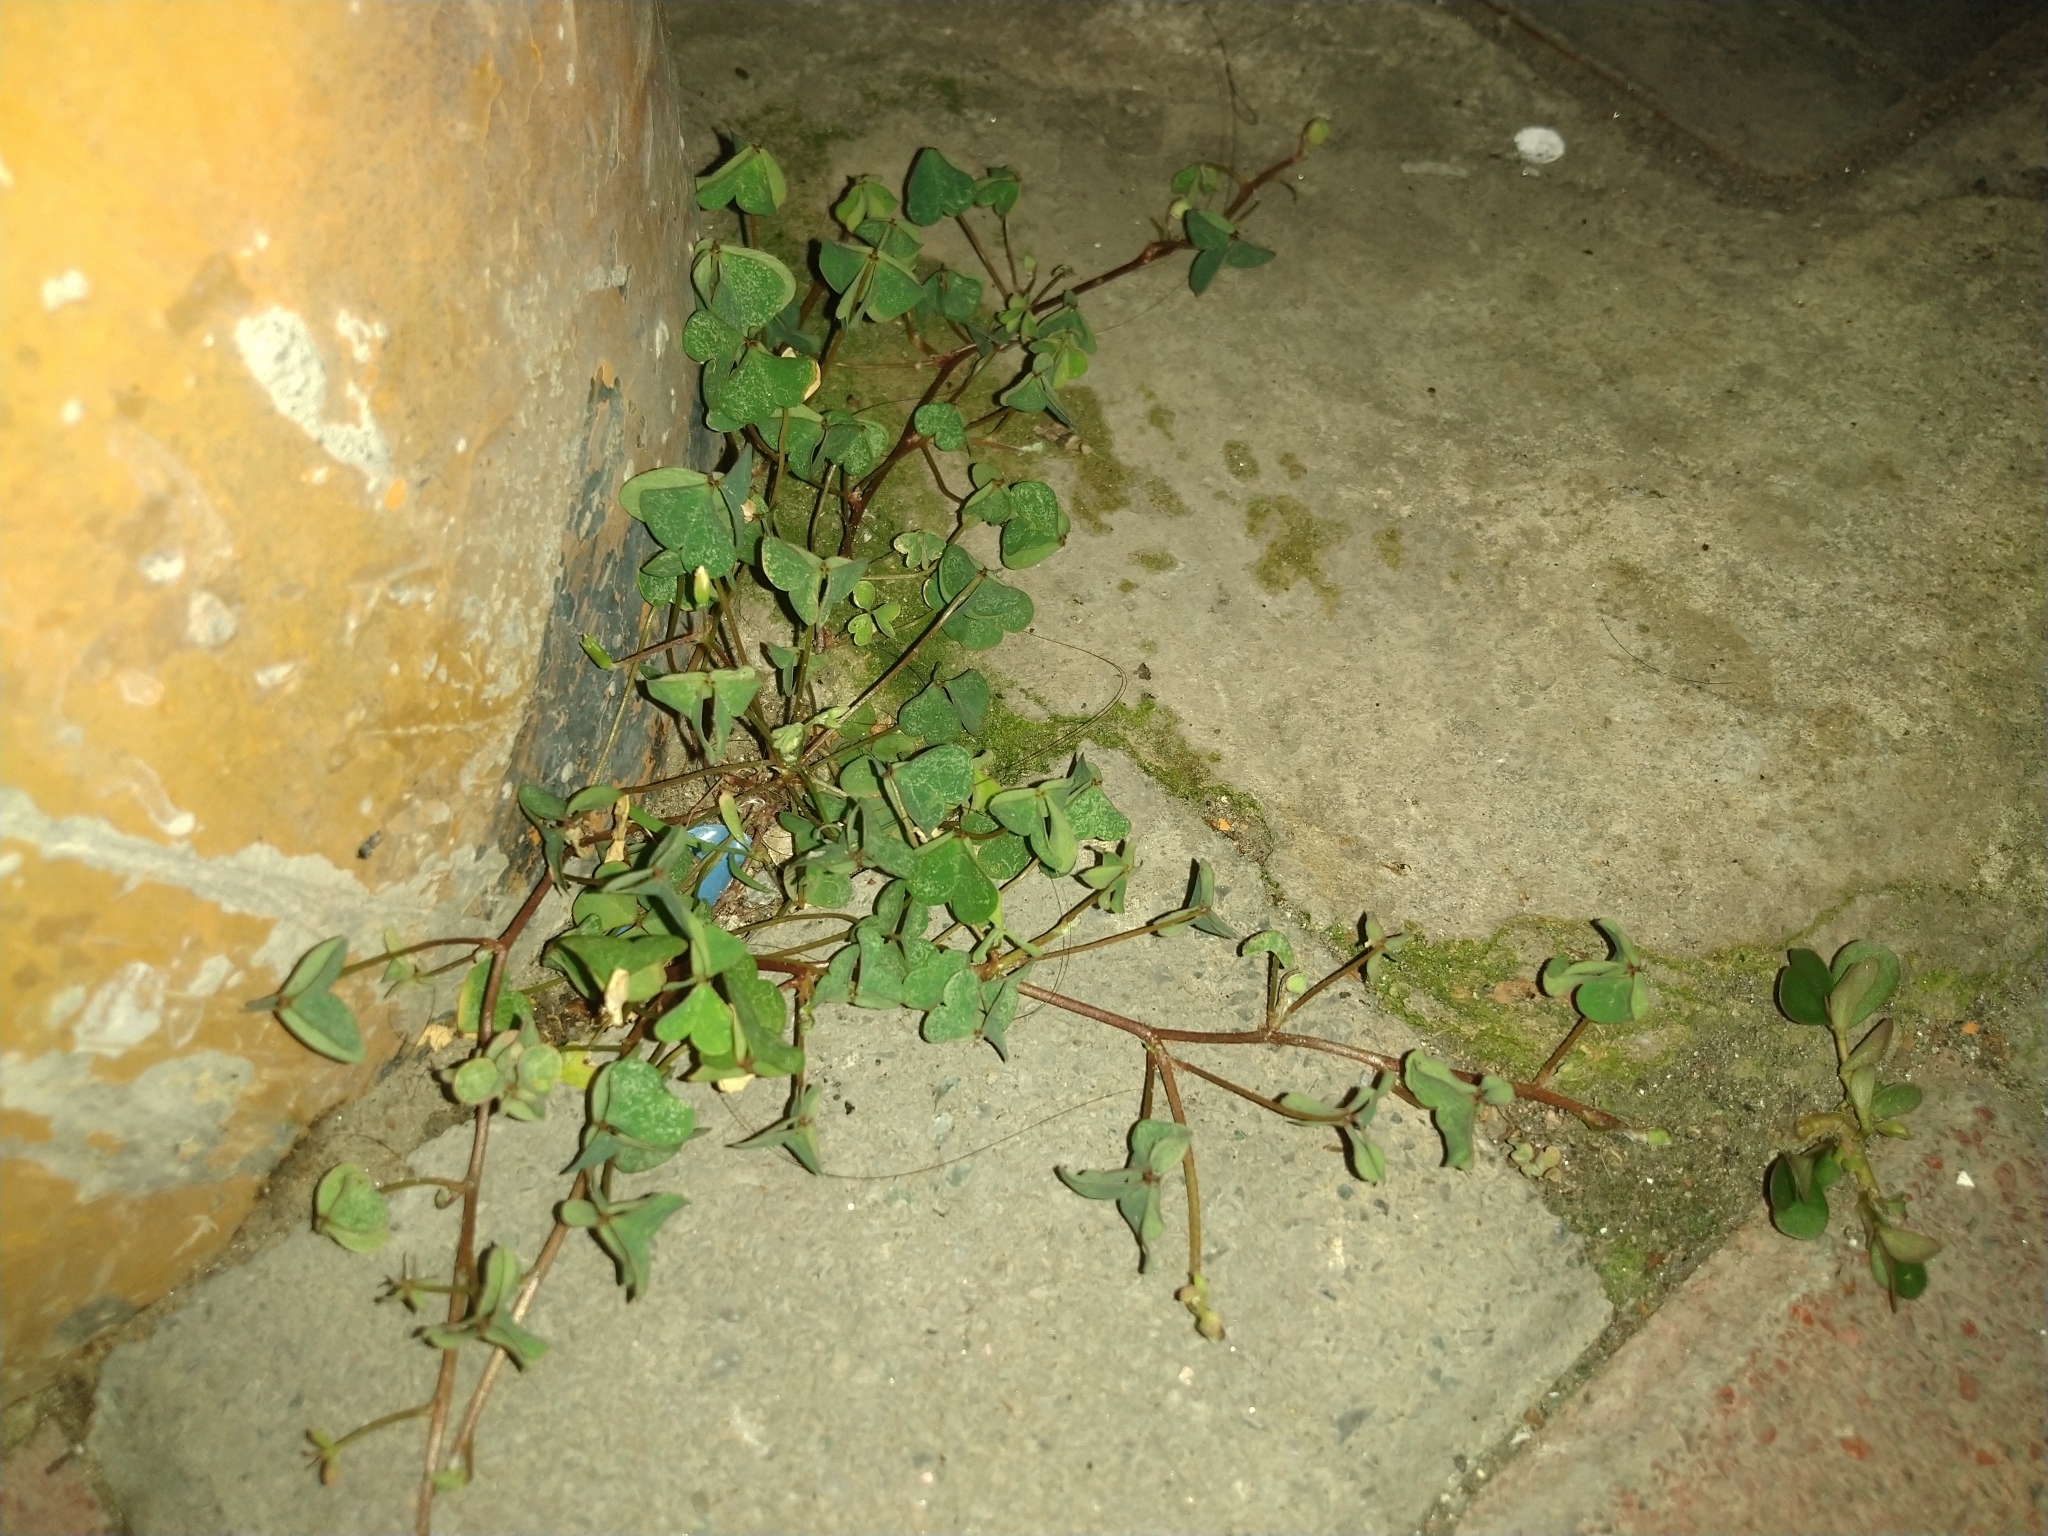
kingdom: Plantae
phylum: Tracheophyta
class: Magnoliopsida
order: Oxalidales
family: Oxalidaceae
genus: Oxalis
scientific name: Oxalis corniculata
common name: Procumbent yellow-sorrel
